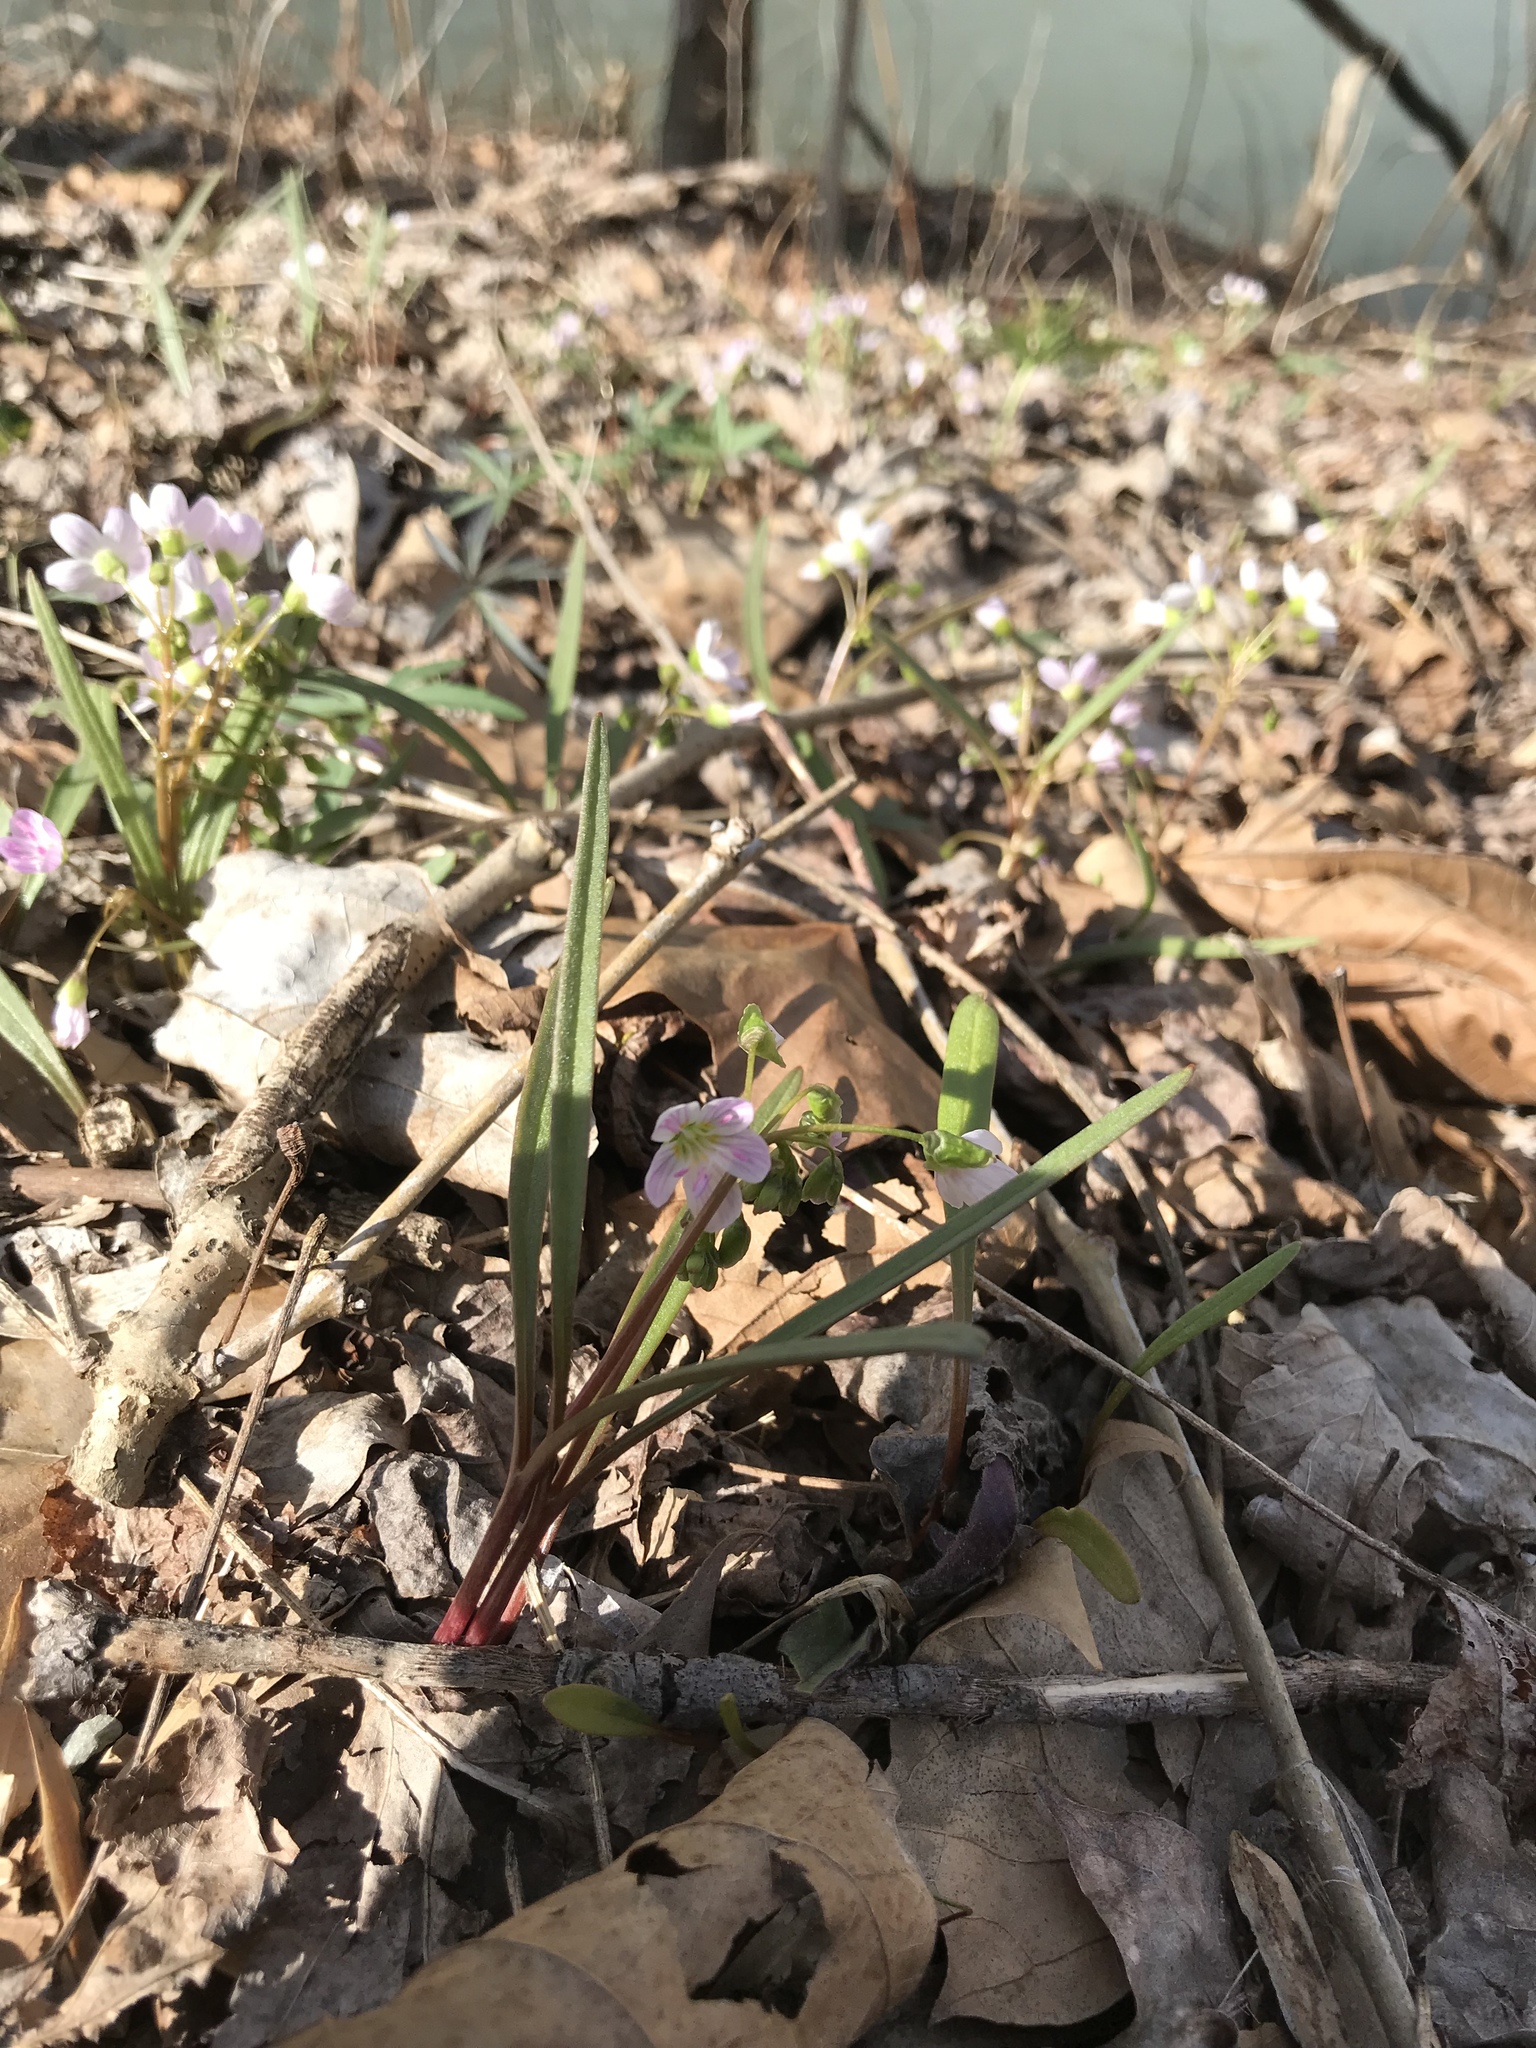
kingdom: Plantae
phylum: Tracheophyta
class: Magnoliopsida
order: Caryophyllales
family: Montiaceae
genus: Claytonia
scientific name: Claytonia virginica
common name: Virginia springbeauty
